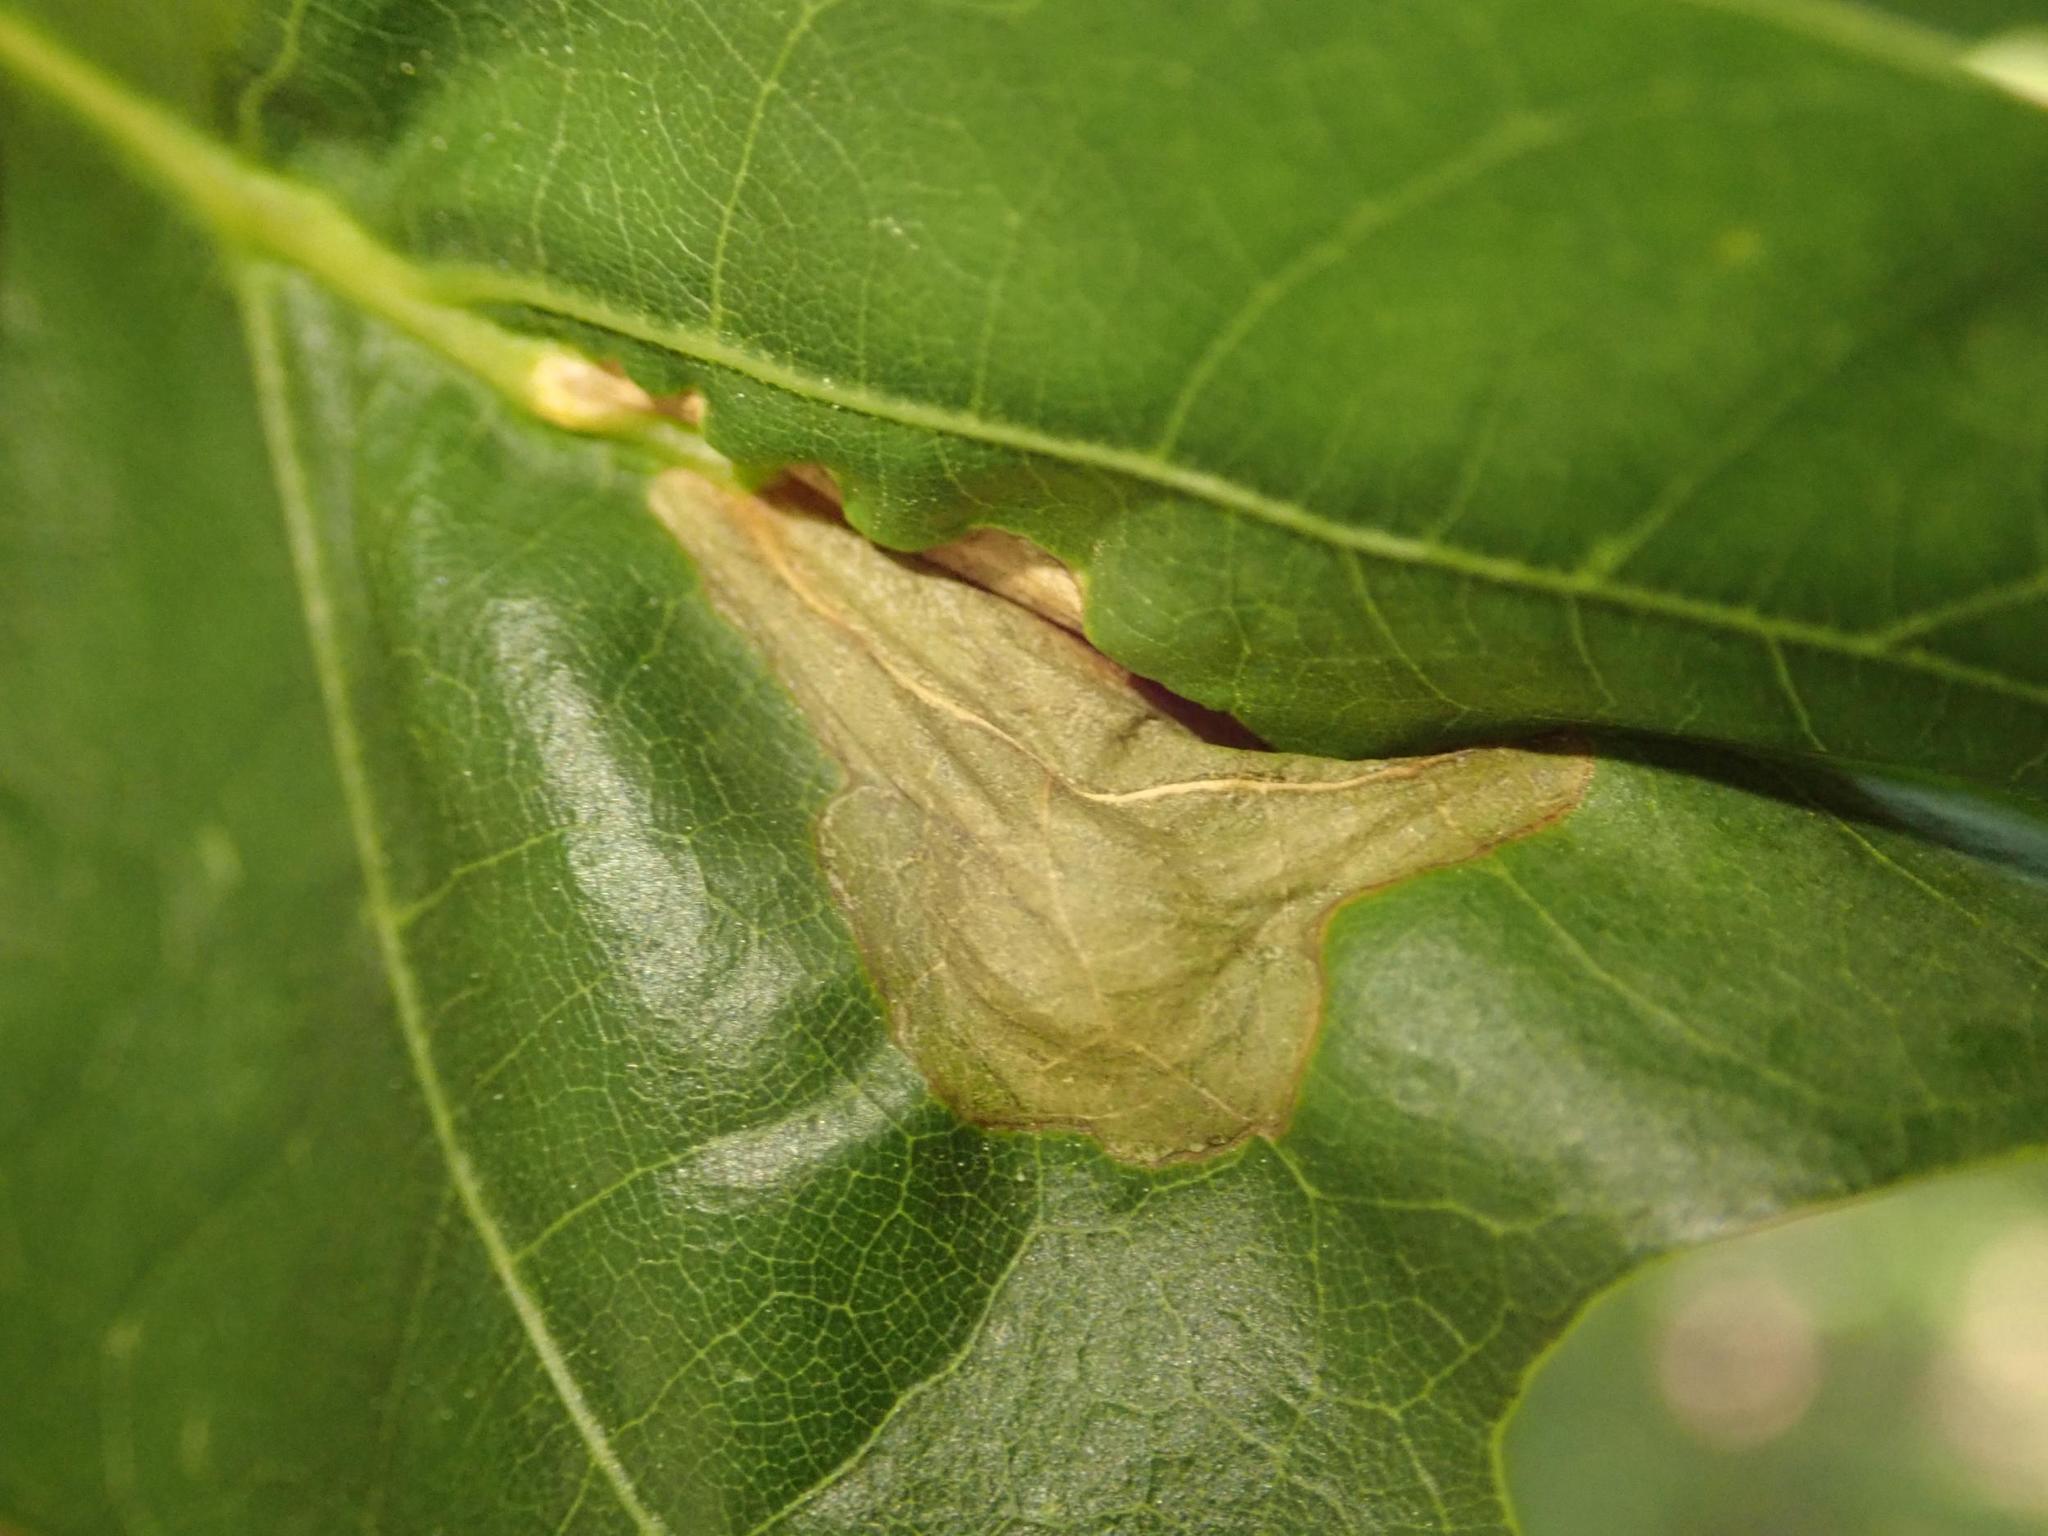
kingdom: Animalia
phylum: Arthropoda
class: Insecta
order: Coleoptera
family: Curculionidae
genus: Orchestes
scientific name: Orchestes quercus
